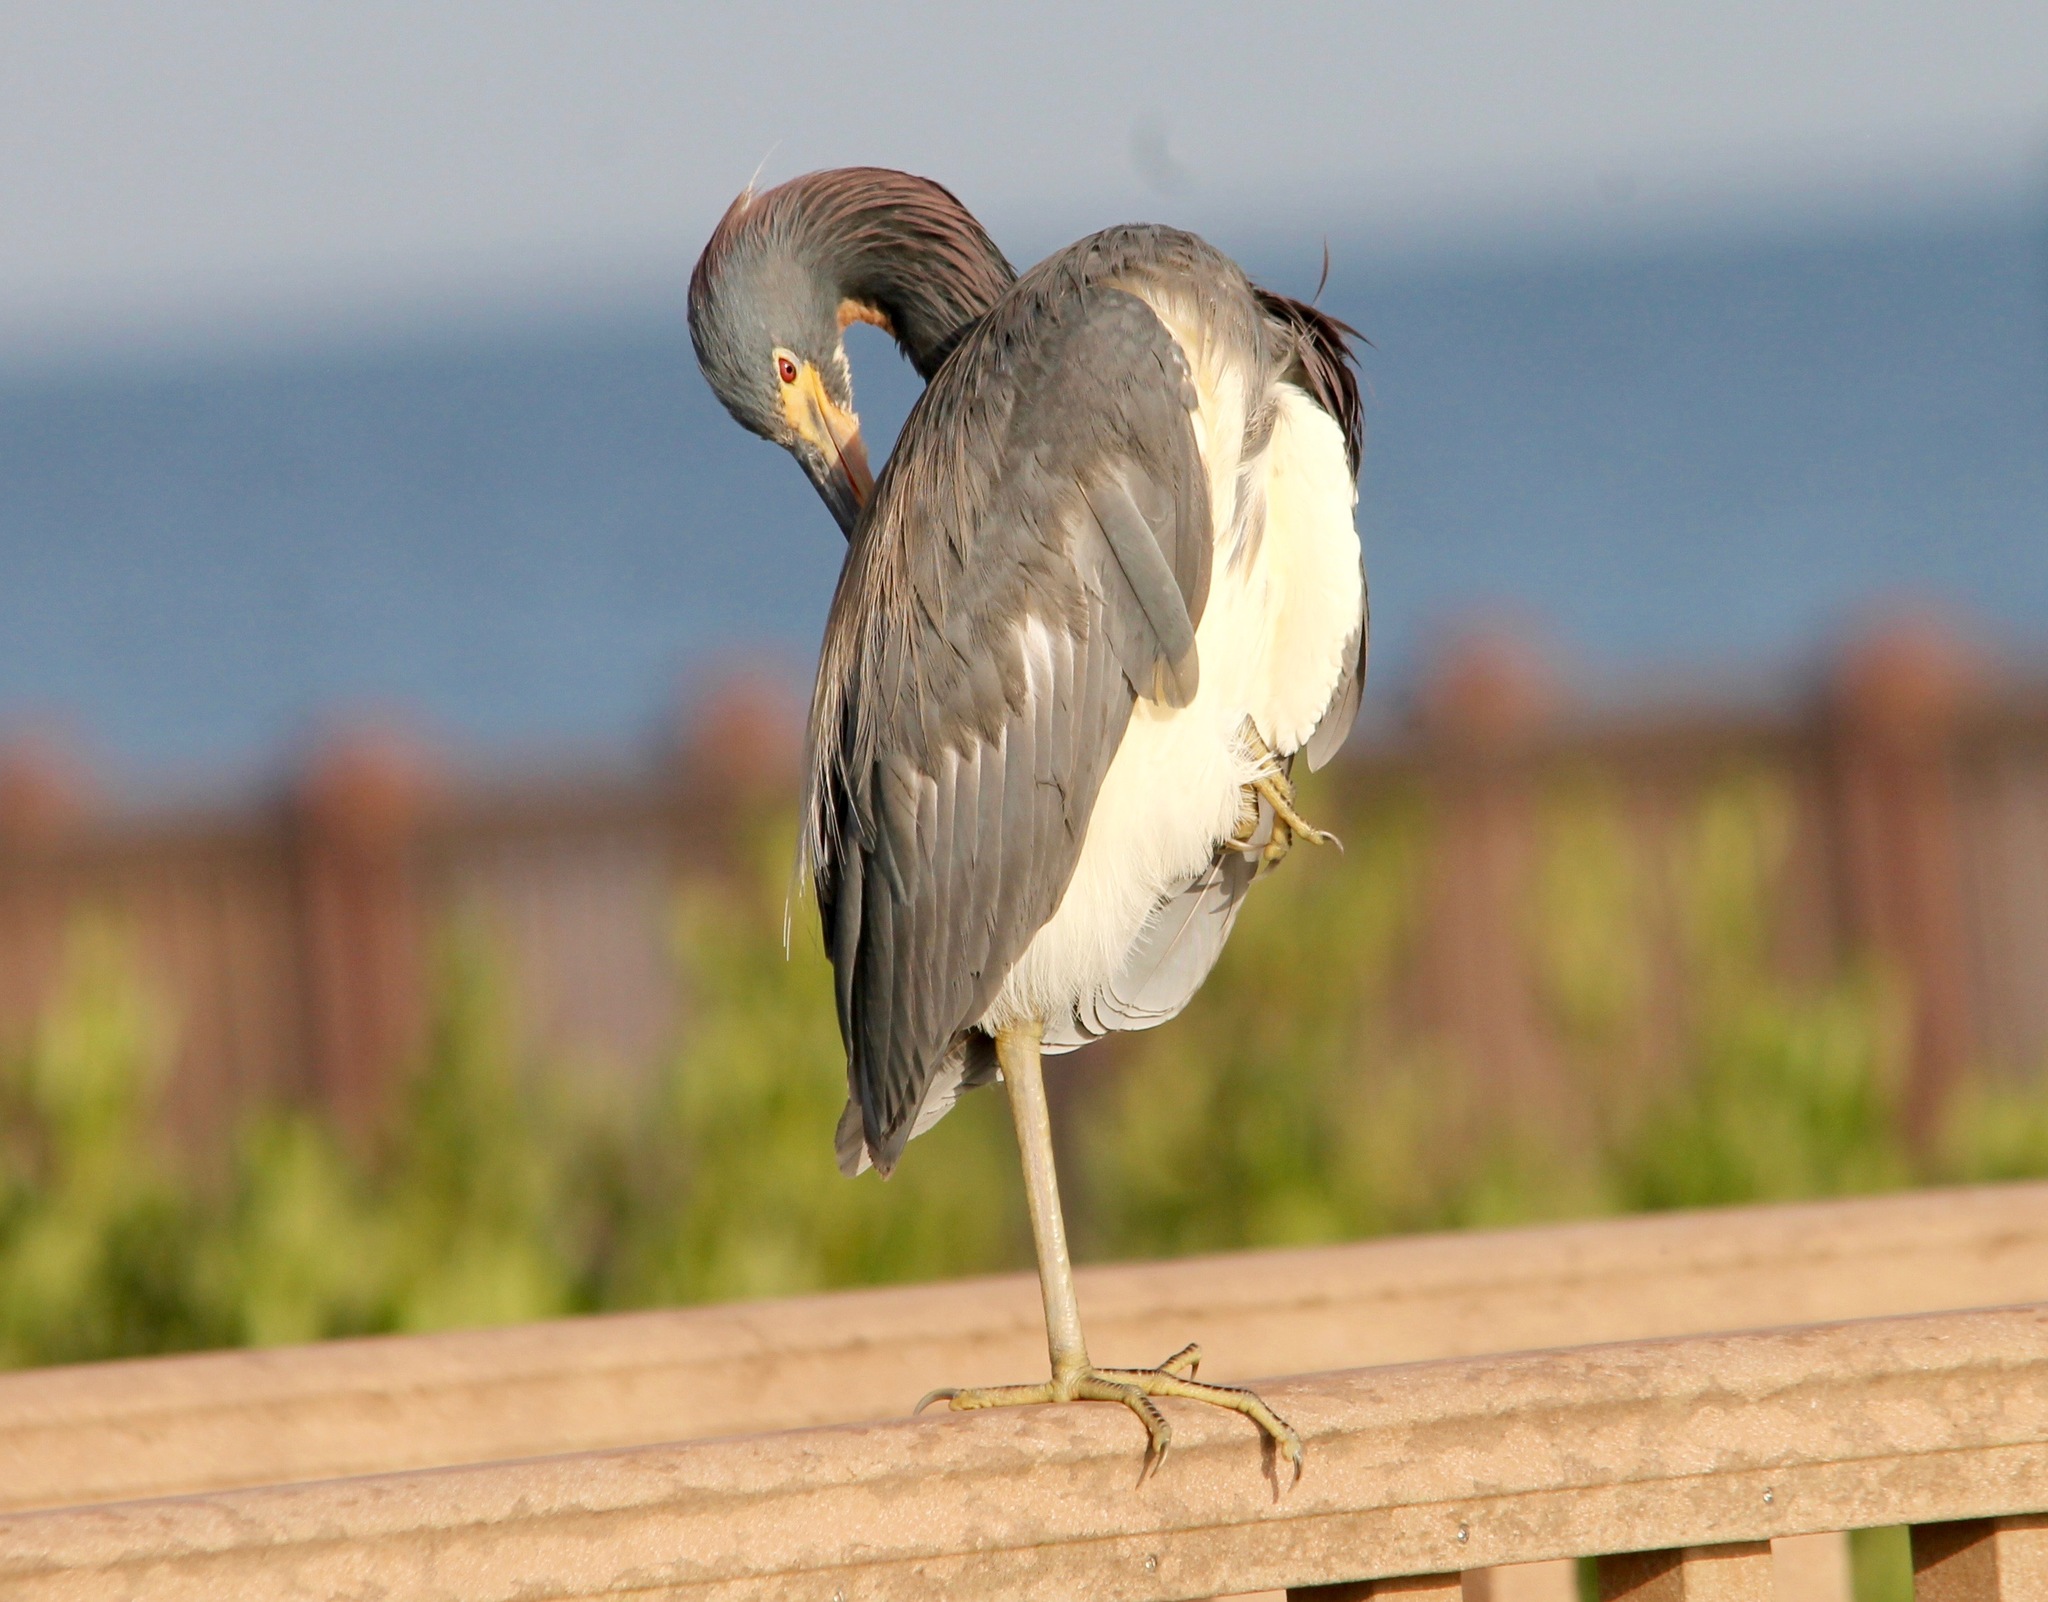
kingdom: Animalia
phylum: Chordata
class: Aves
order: Pelecaniformes
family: Ardeidae
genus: Egretta
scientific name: Egretta tricolor
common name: Tricolored heron
